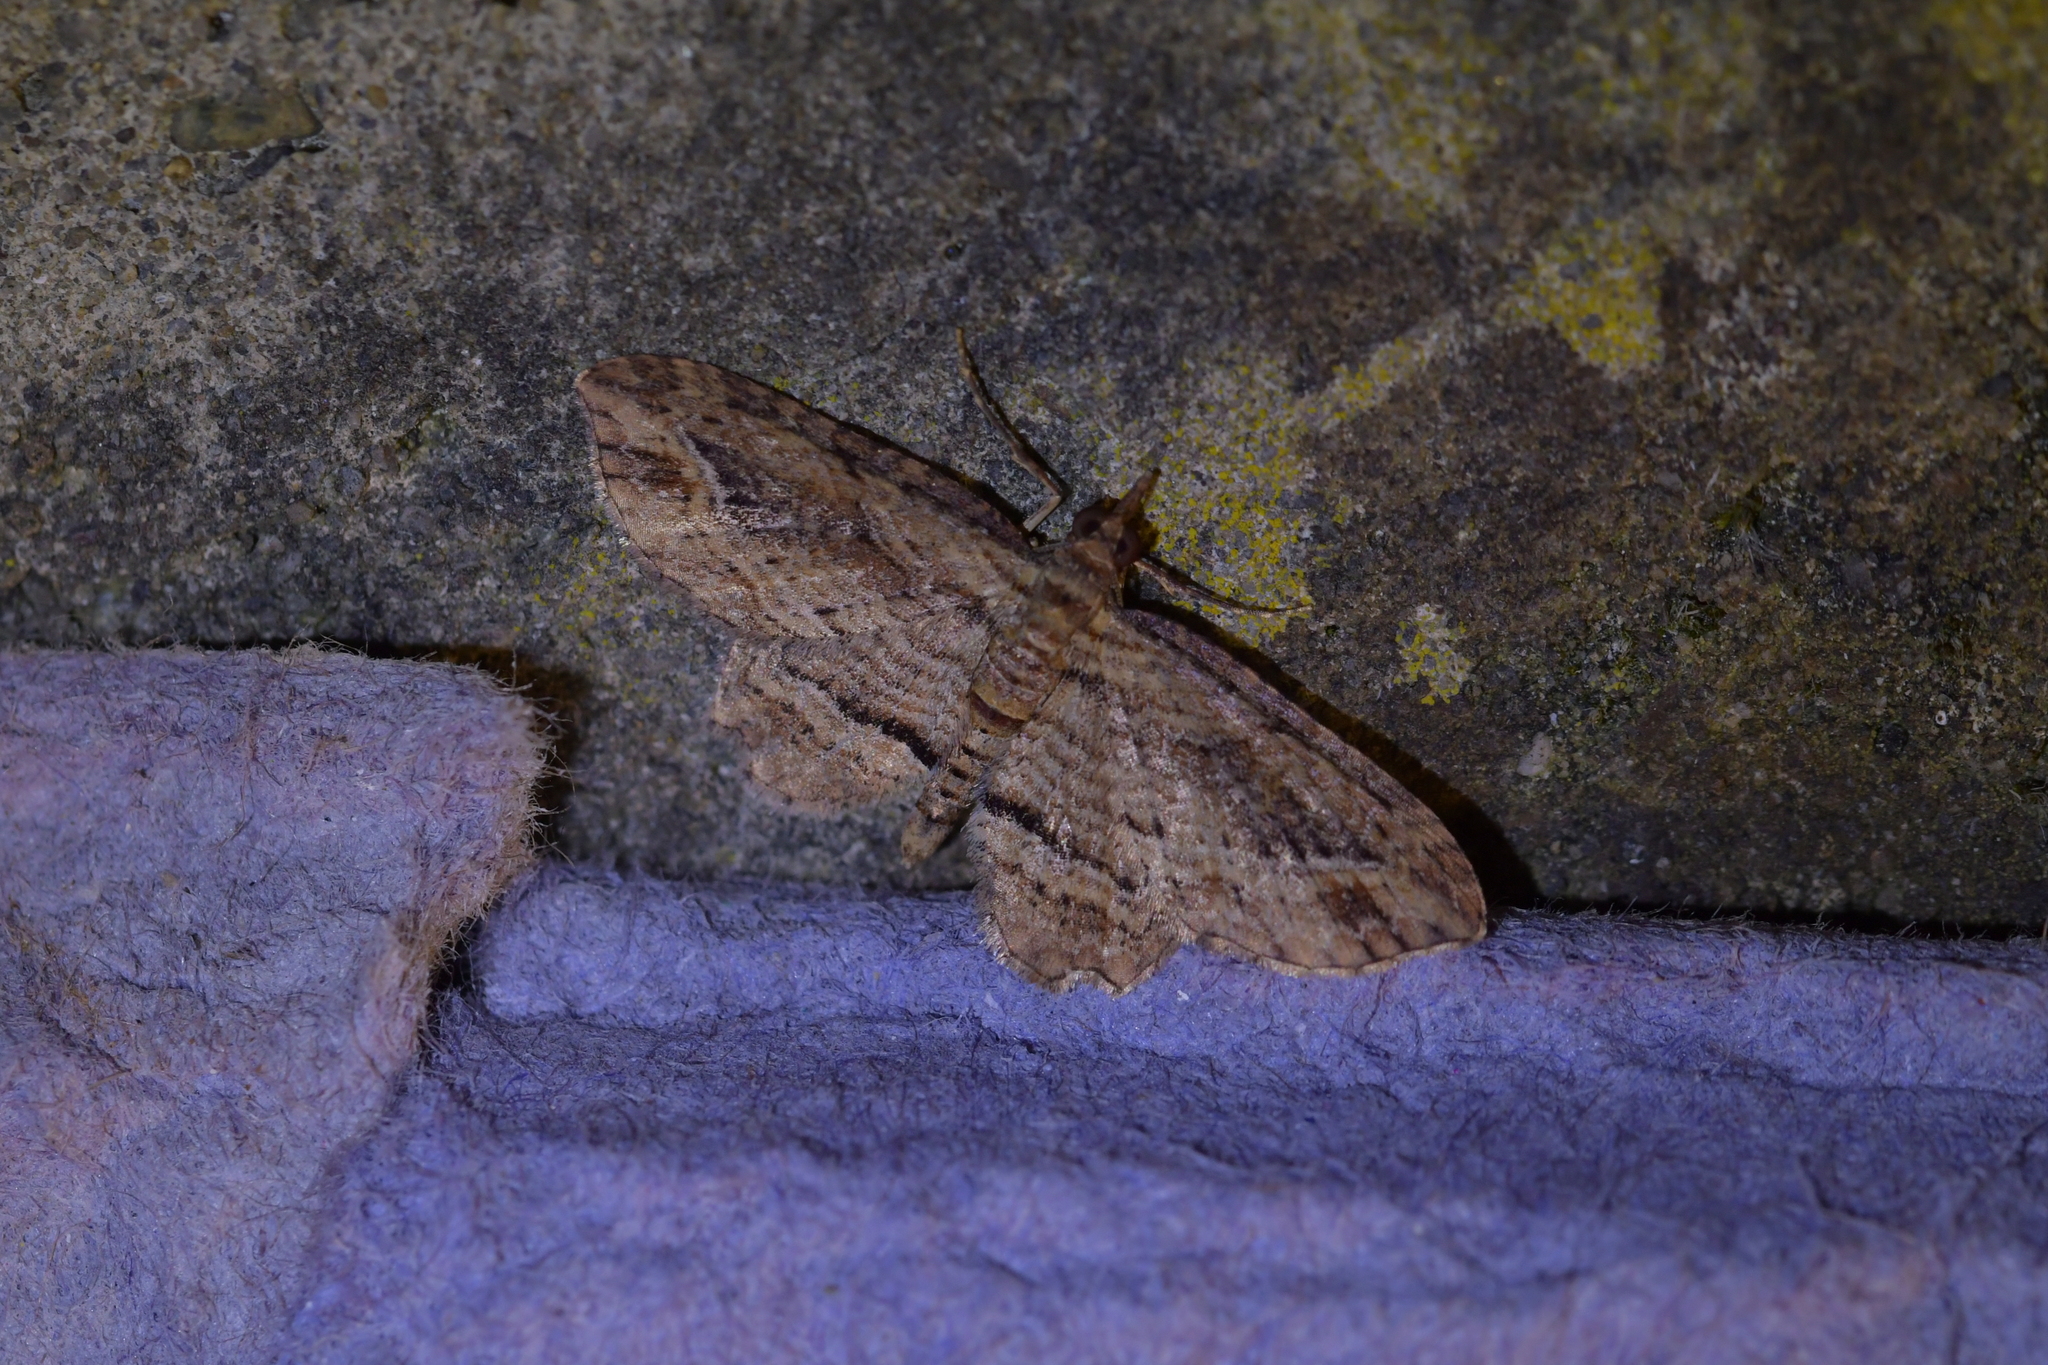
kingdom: Animalia
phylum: Arthropoda
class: Insecta
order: Lepidoptera
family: Geometridae
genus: Chloroclystis
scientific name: Chloroclystis filata
